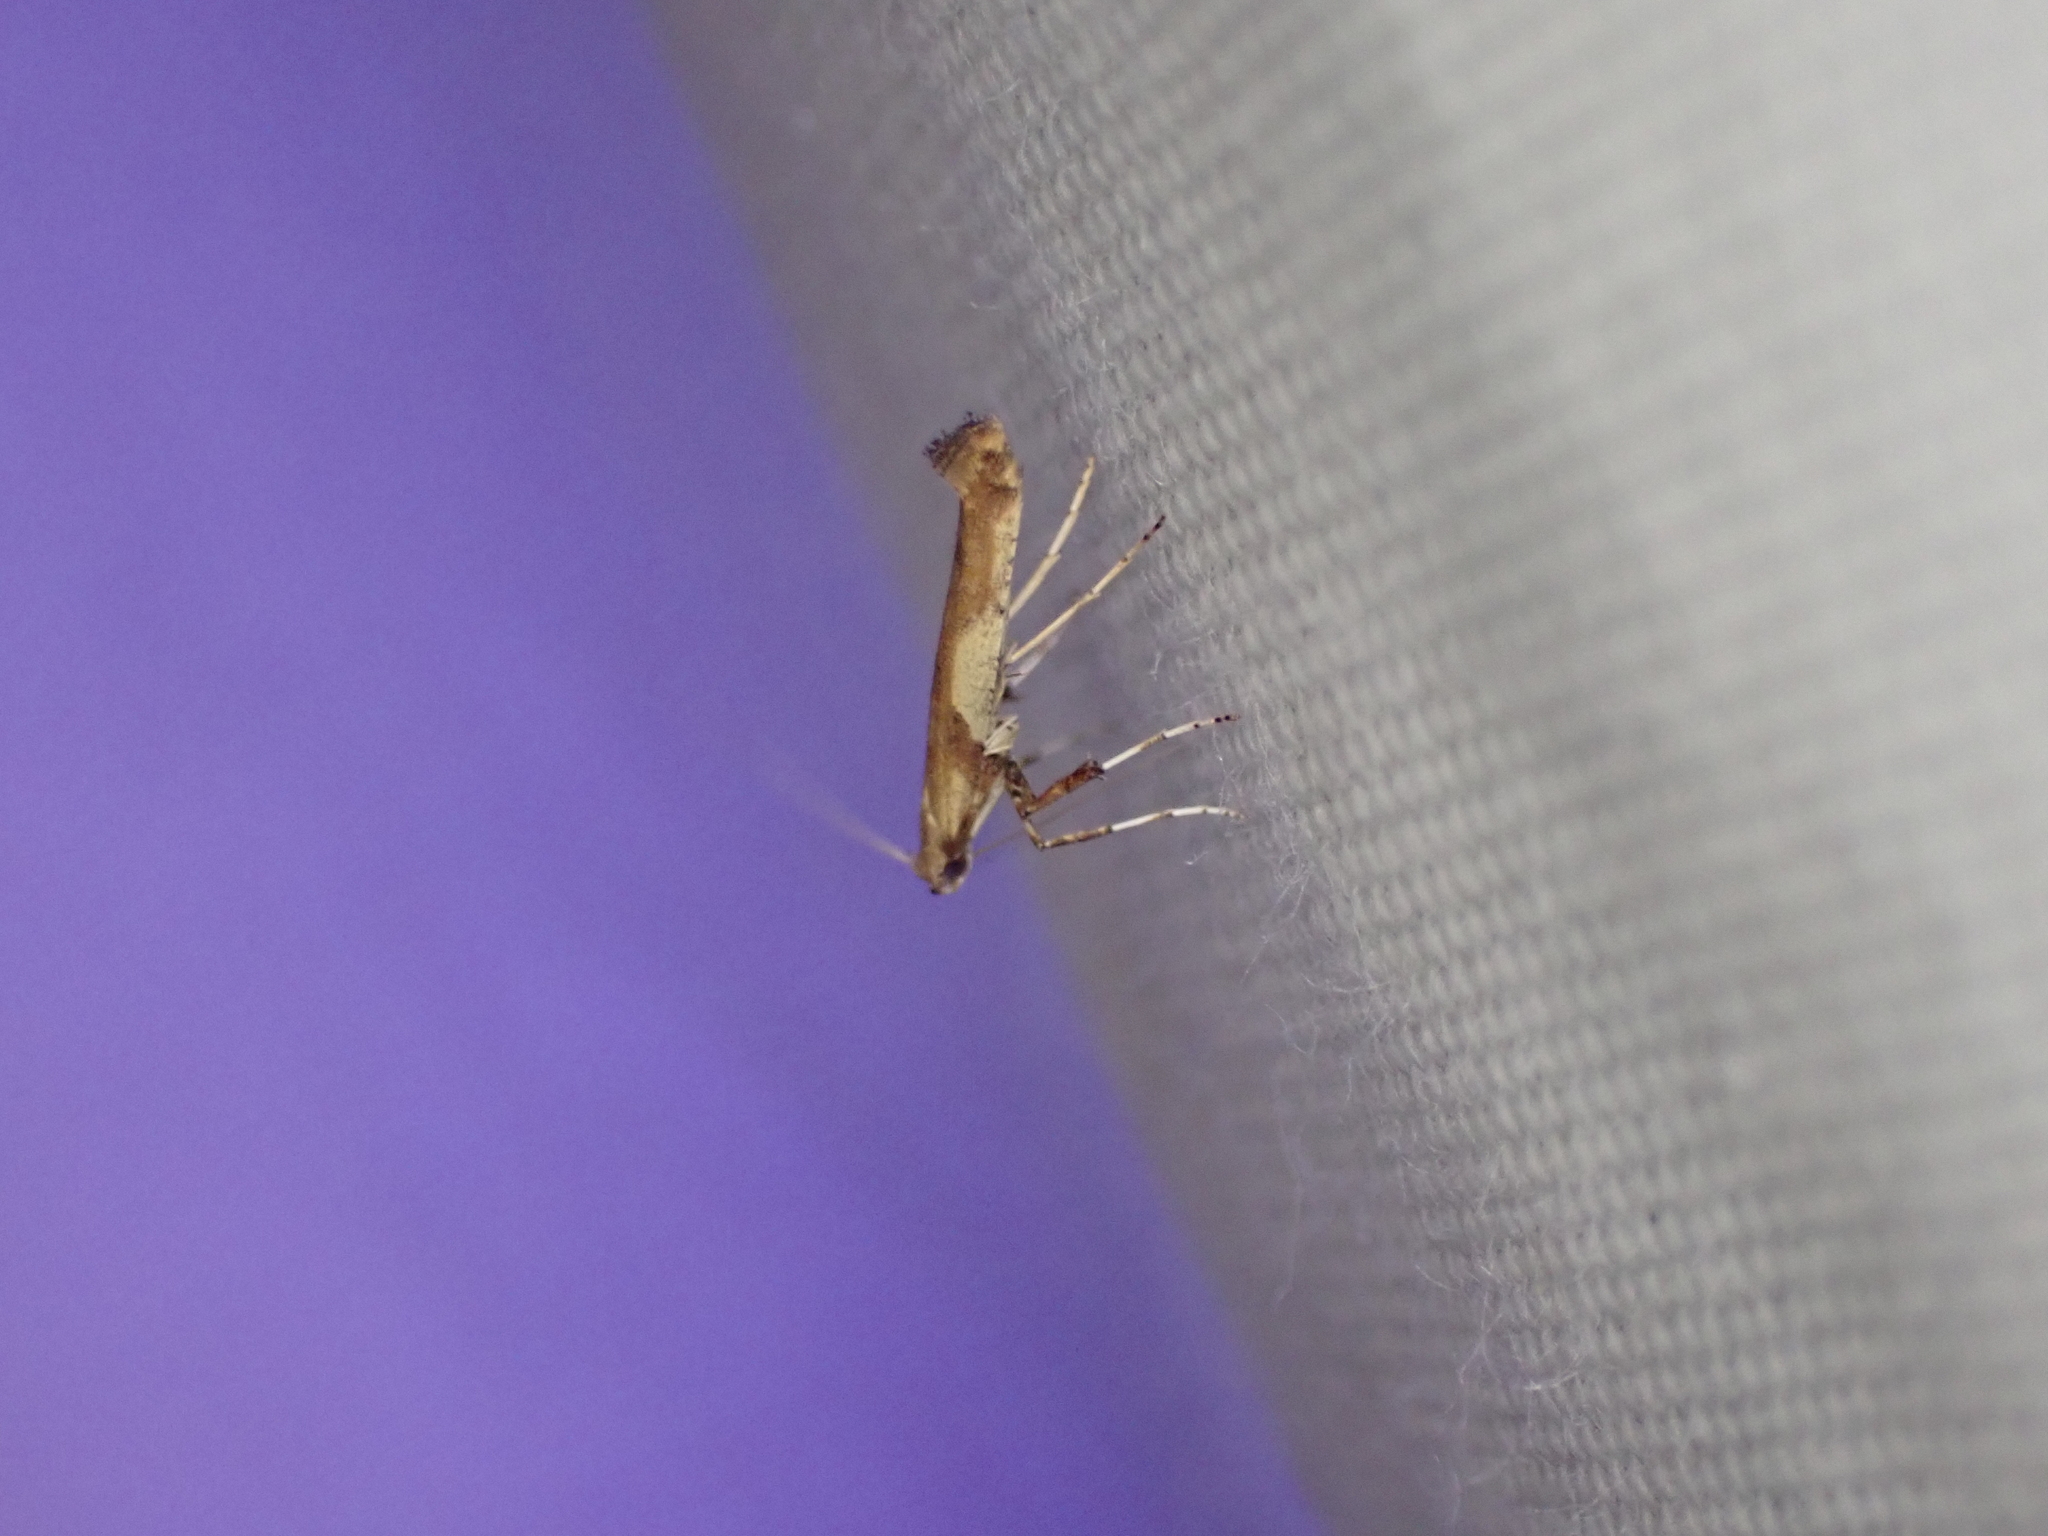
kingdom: Animalia
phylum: Arthropoda
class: Insecta
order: Lepidoptera
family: Gracillariidae
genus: Caloptilia
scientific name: Caloptilia blandella
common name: Walnut caloptilia moth
